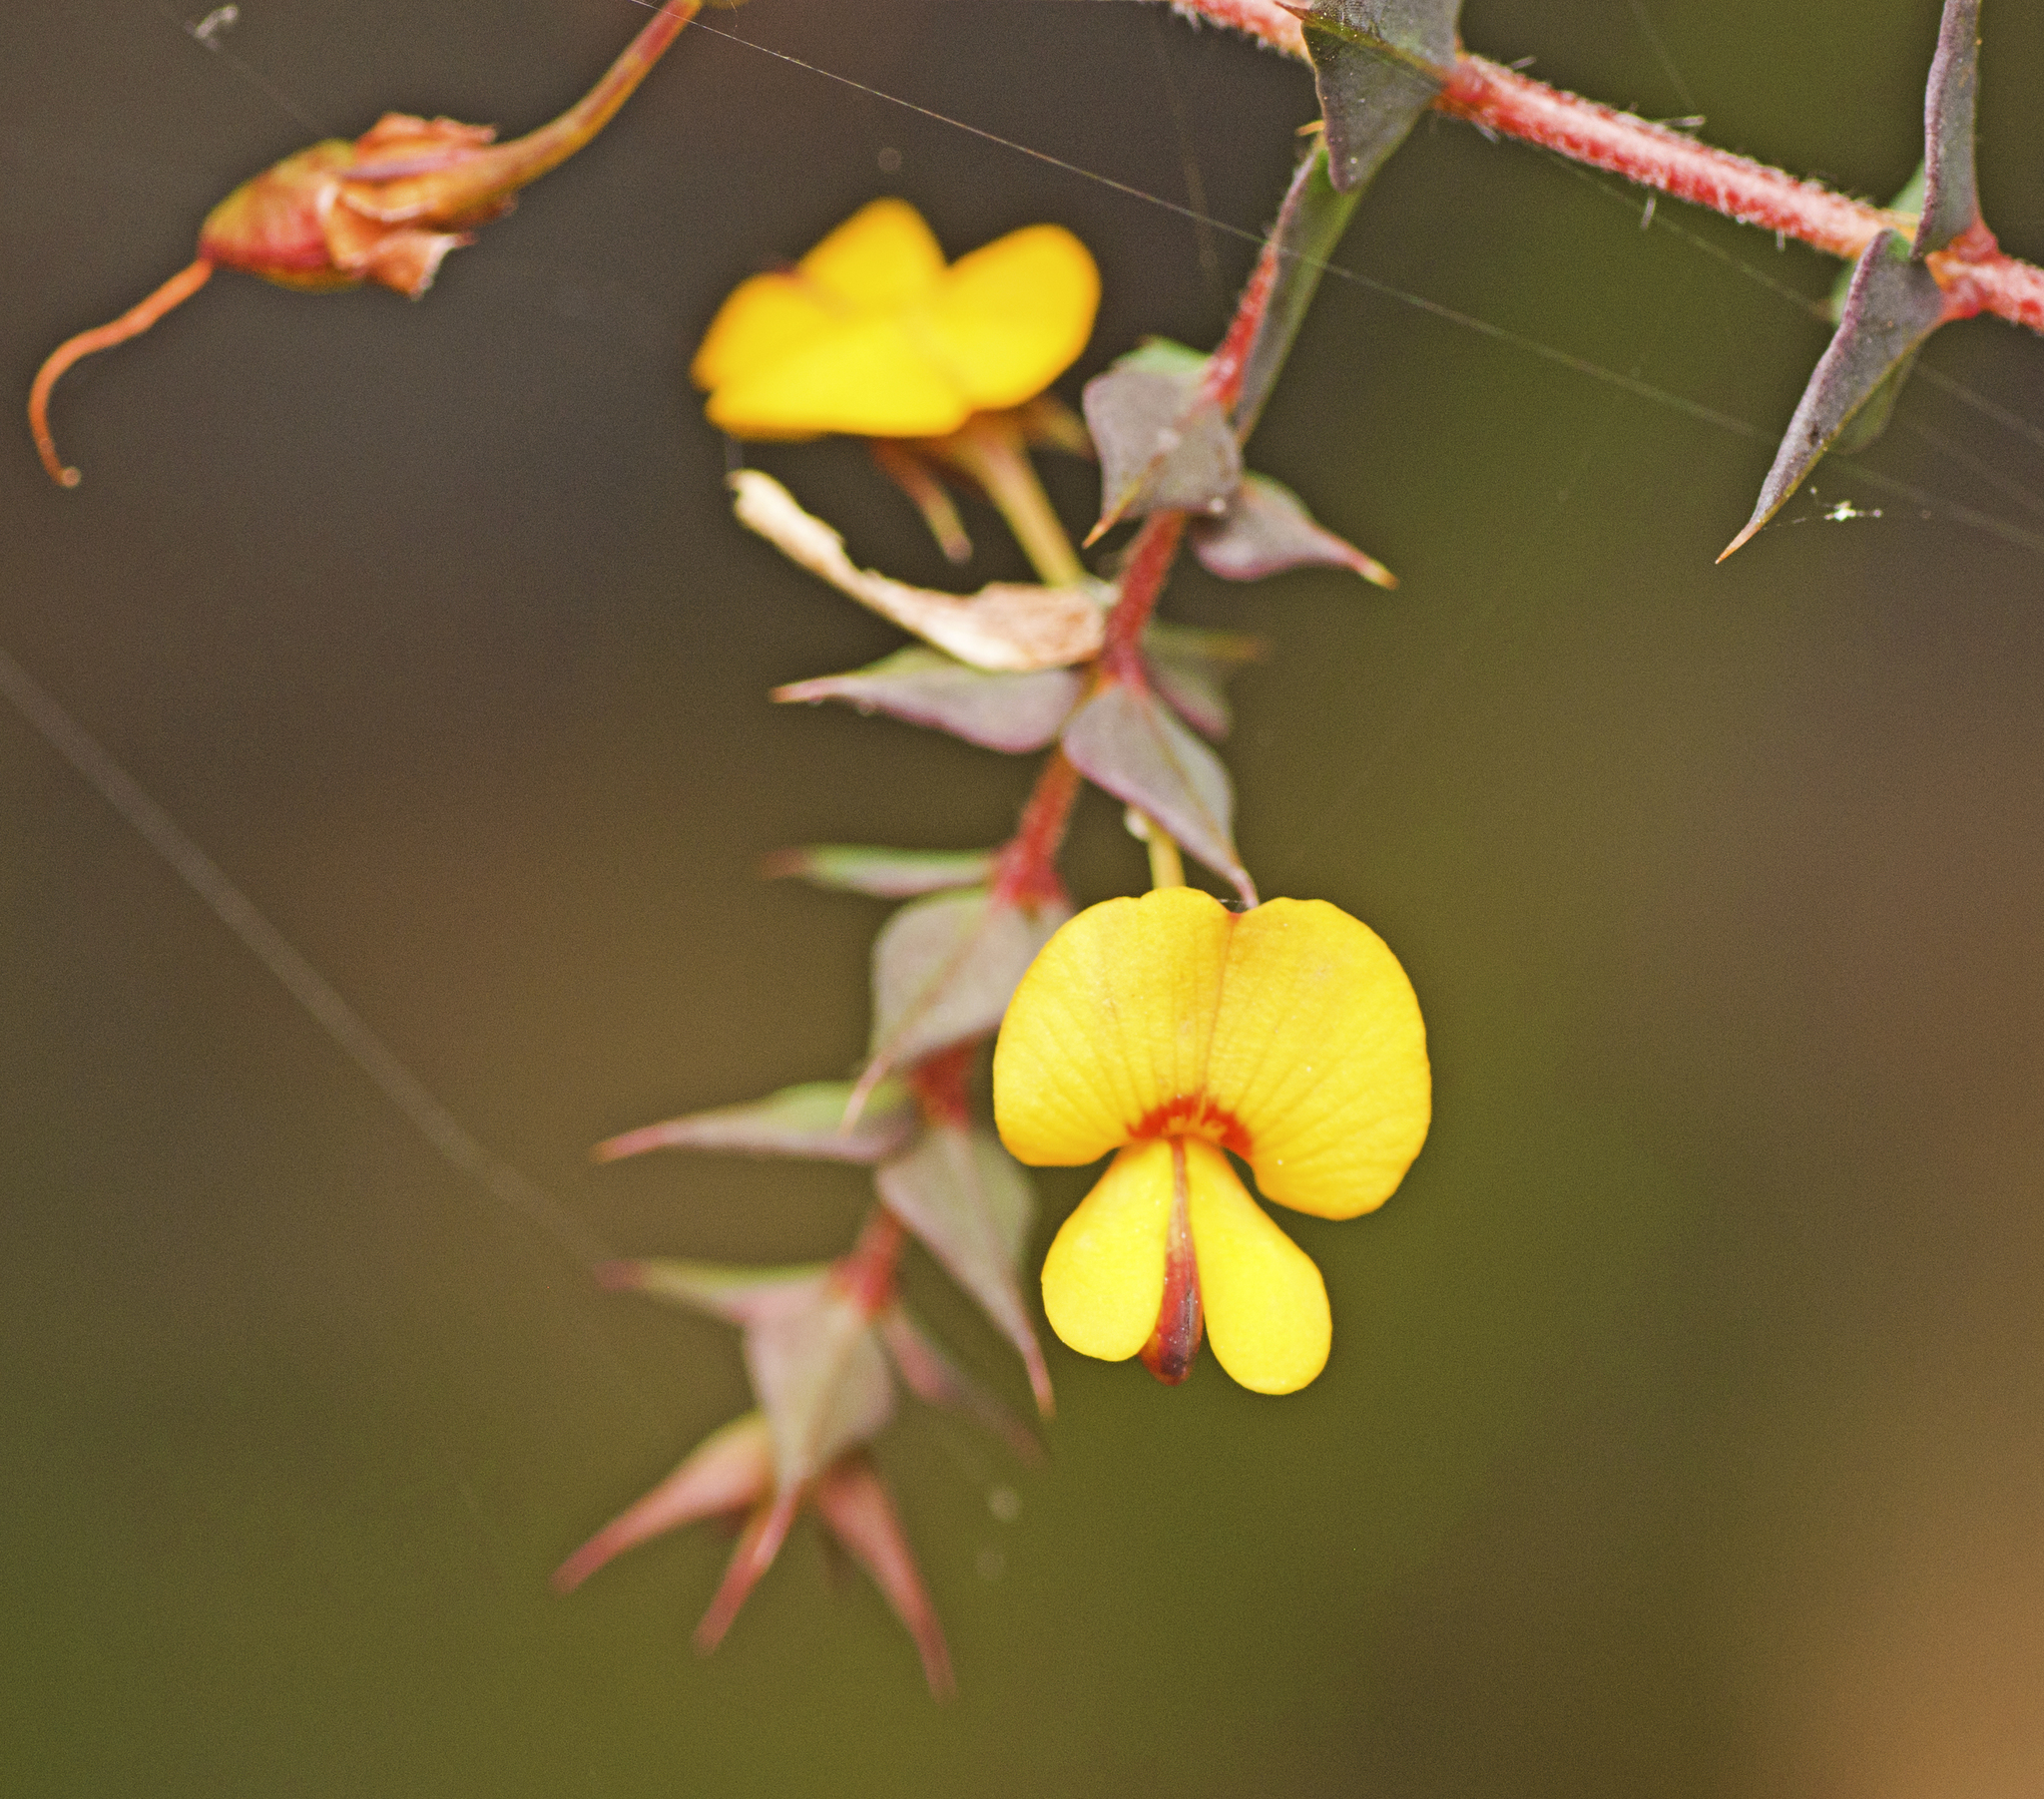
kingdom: Plantae
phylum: Tracheophyta
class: Magnoliopsida
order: Fabales
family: Fabaceae
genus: Pultenaea
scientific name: Pultenaea spinosa
